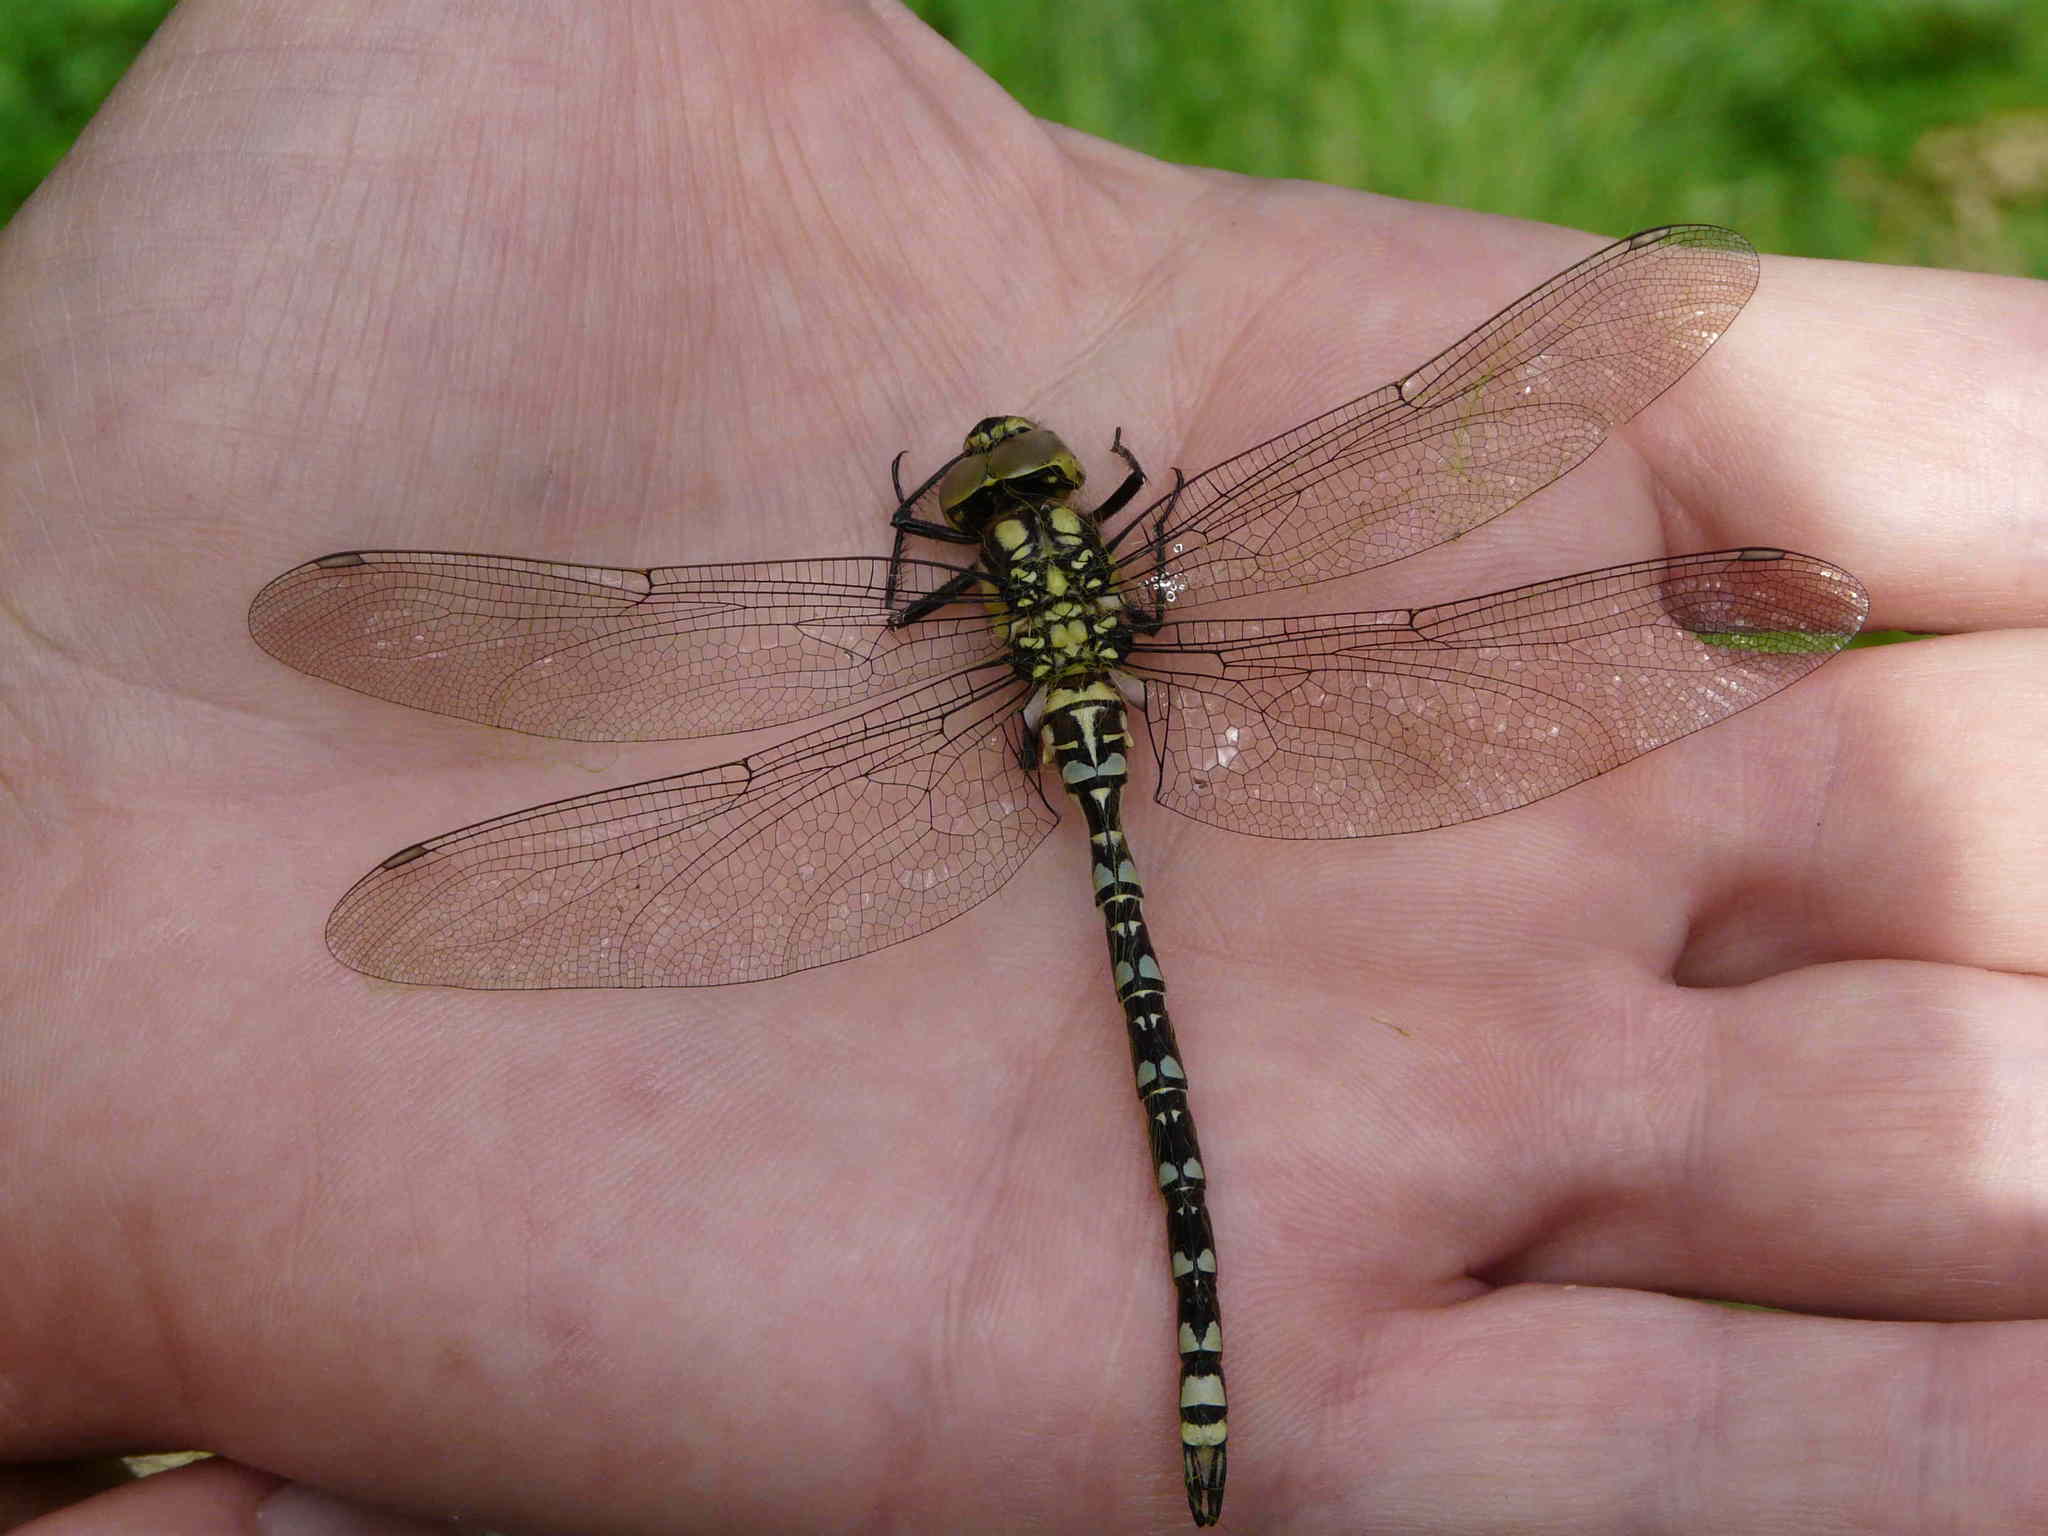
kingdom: Animalia
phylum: Arthropoda
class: Insecta
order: Odonata
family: Aeshnidae
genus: Aeshna
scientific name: Aeshna cyanea
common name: Southern hawker
